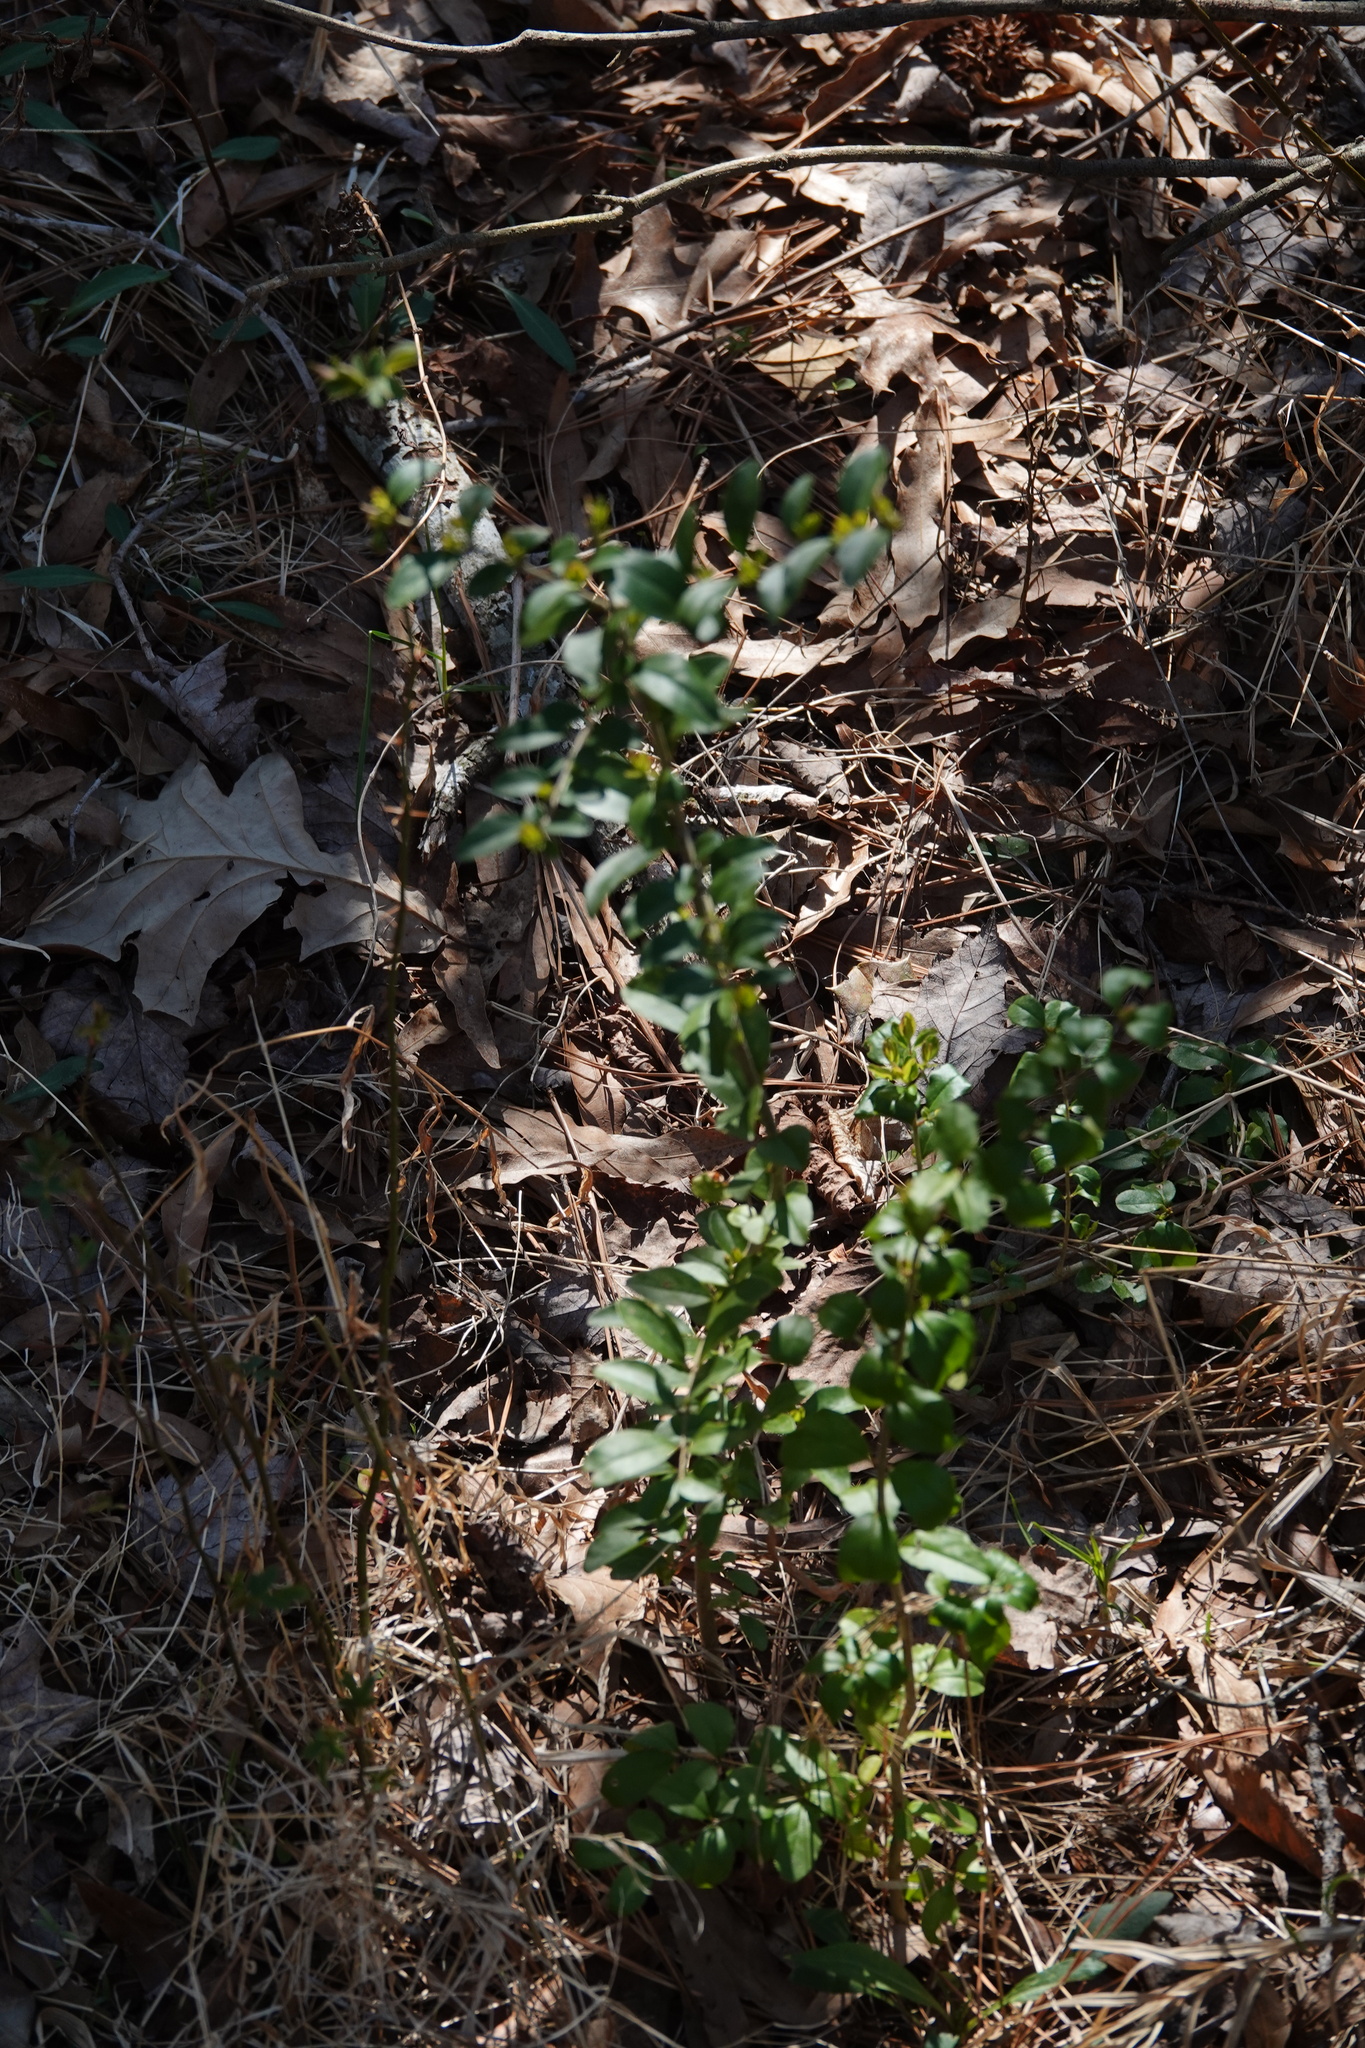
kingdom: Plantae
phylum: Tracheophyta
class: Magnoliopsida
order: Lamiales
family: Oleaceae
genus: Ligustrum
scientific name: Ligustrum sinense
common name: Chinese privet
